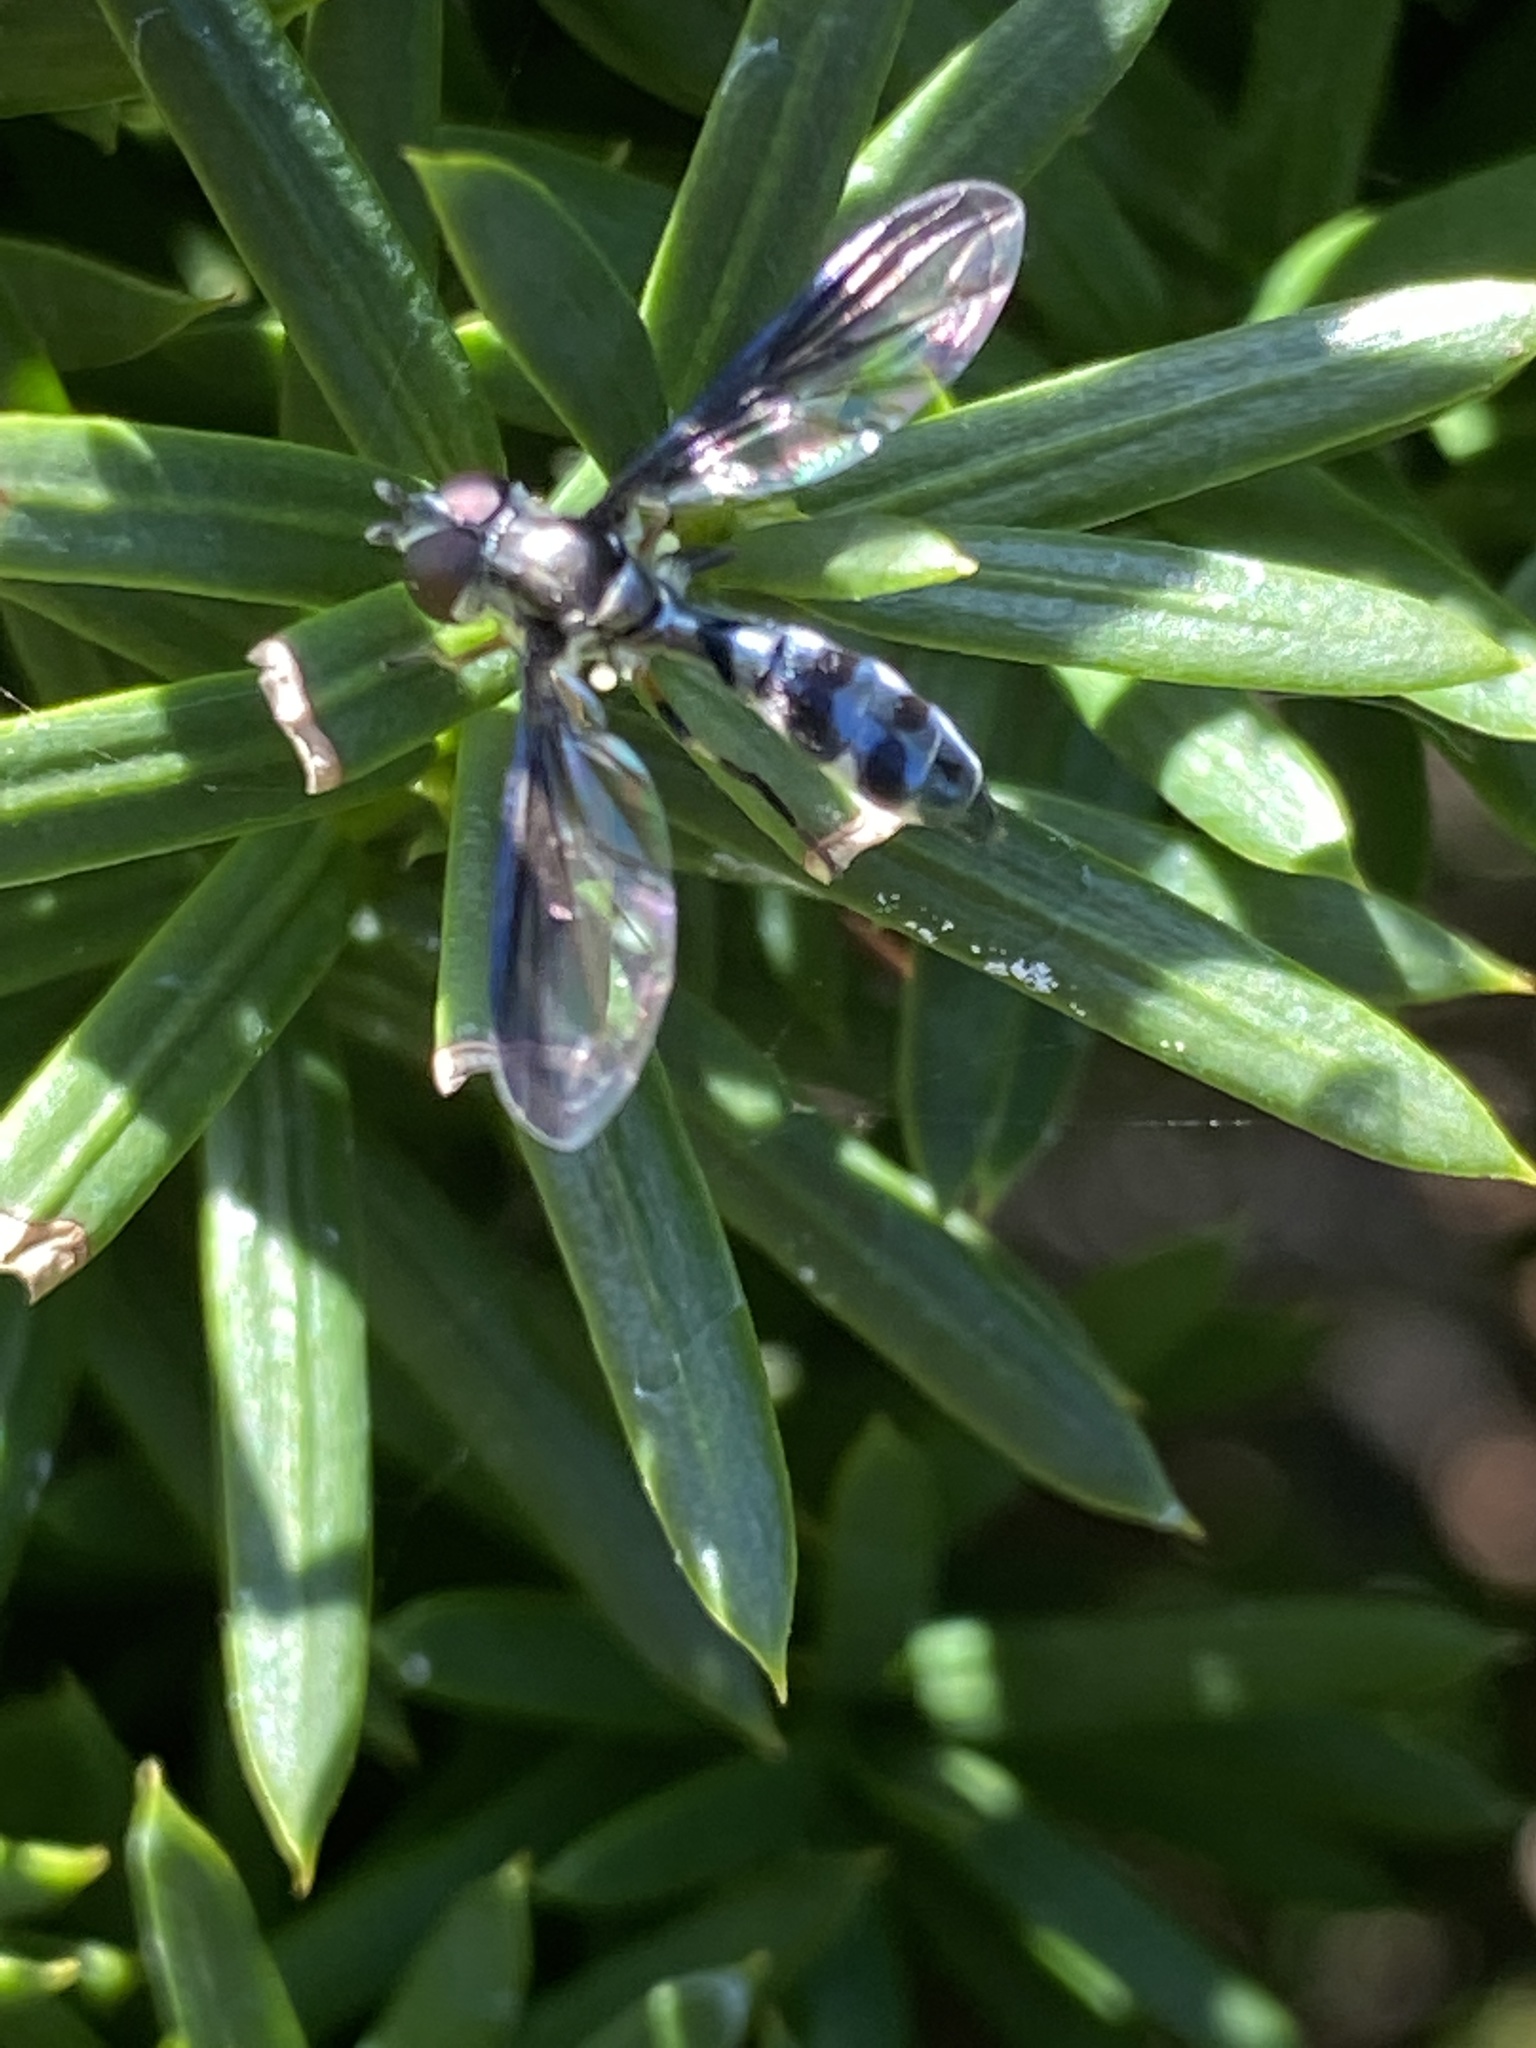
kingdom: Animalia
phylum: Arthropoda
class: Insecta
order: Diptera
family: Syrphidae
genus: Ocyptamus
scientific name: Ocyptamus costatus
